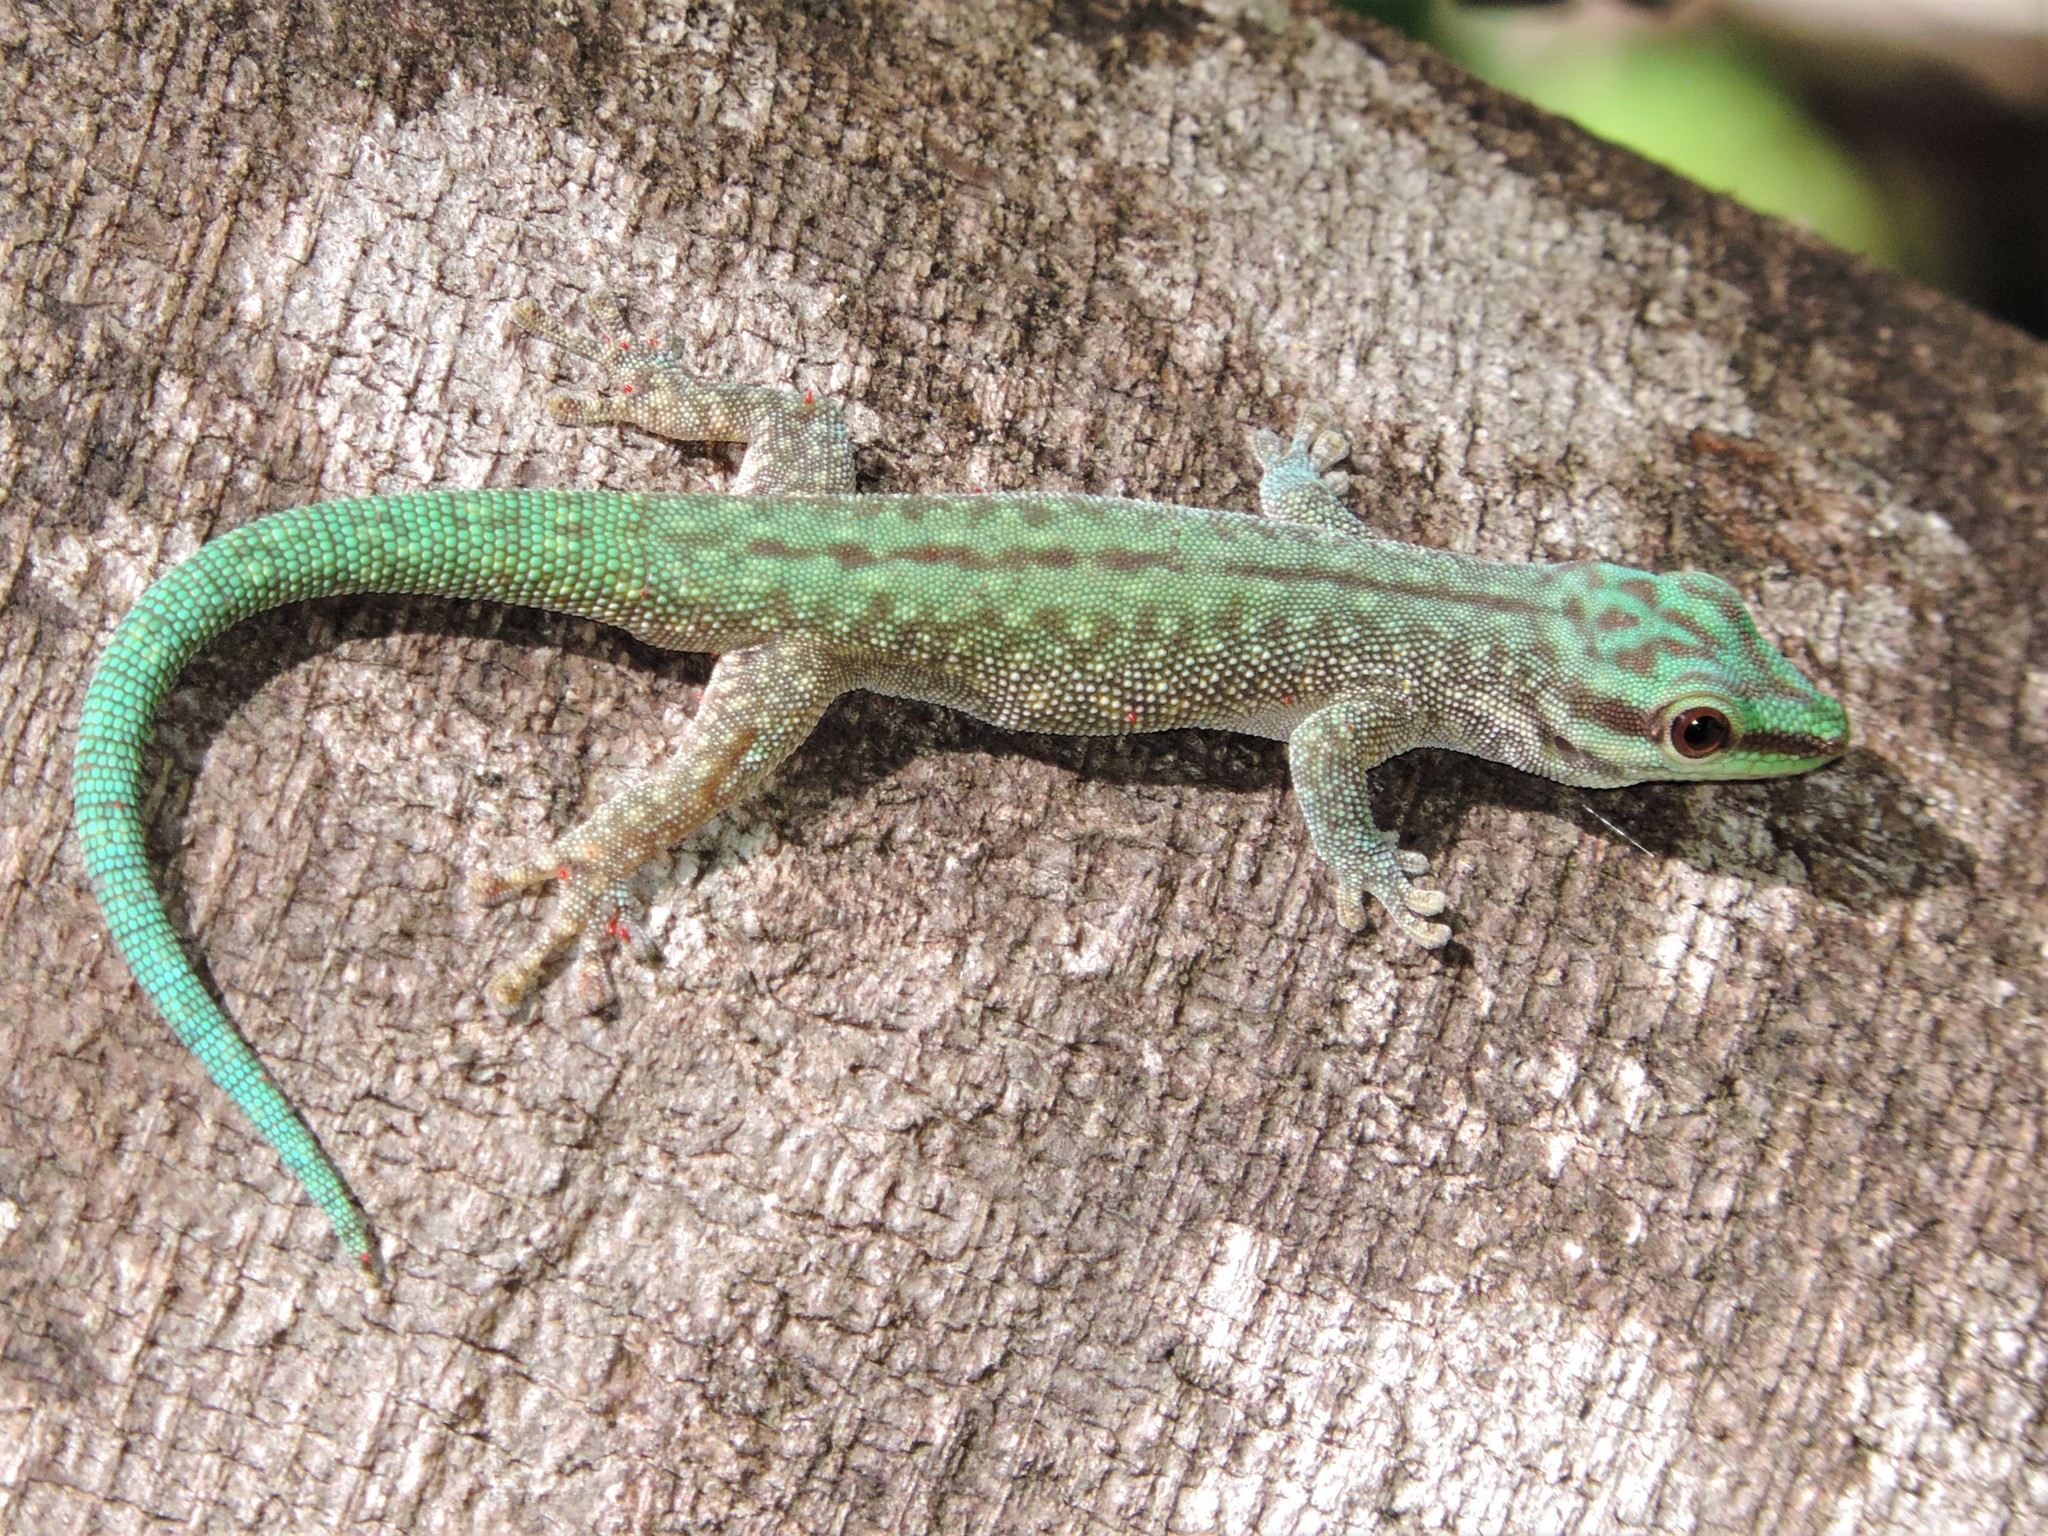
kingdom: Animalia
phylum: Chordata
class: Squamata
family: Gekkonidae
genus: Phelsuma
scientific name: Phelsuma abbotti
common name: Aldabra day gecko
